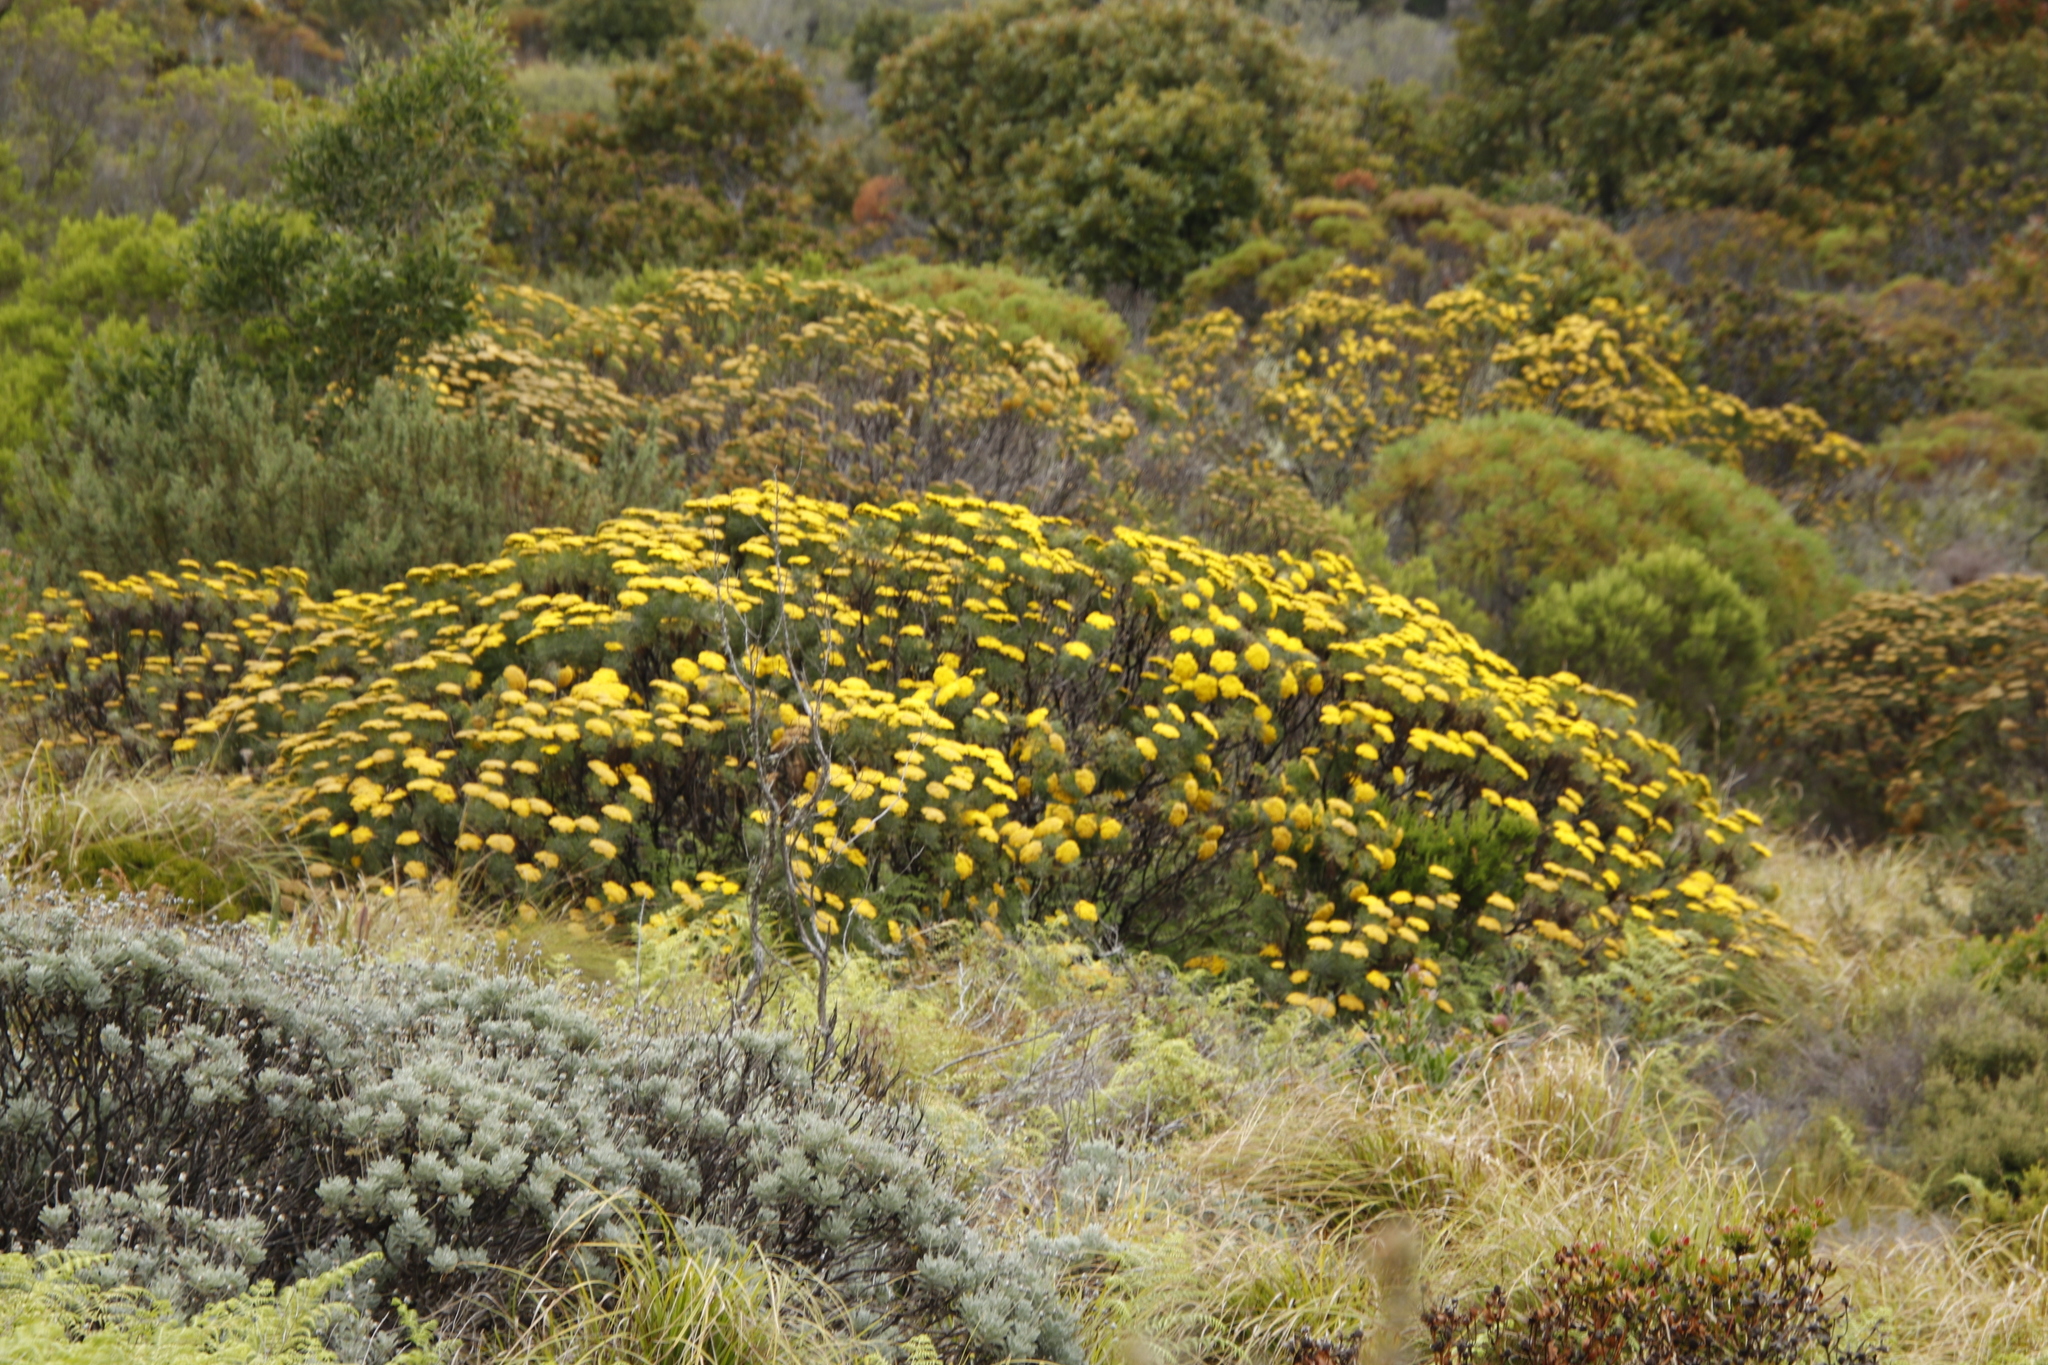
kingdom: Plantae
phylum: Tracheophyta
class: Magnoliopsida
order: Asterales
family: Asteraceae
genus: Hymenolepis
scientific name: Hymenolepis crithmifolia
